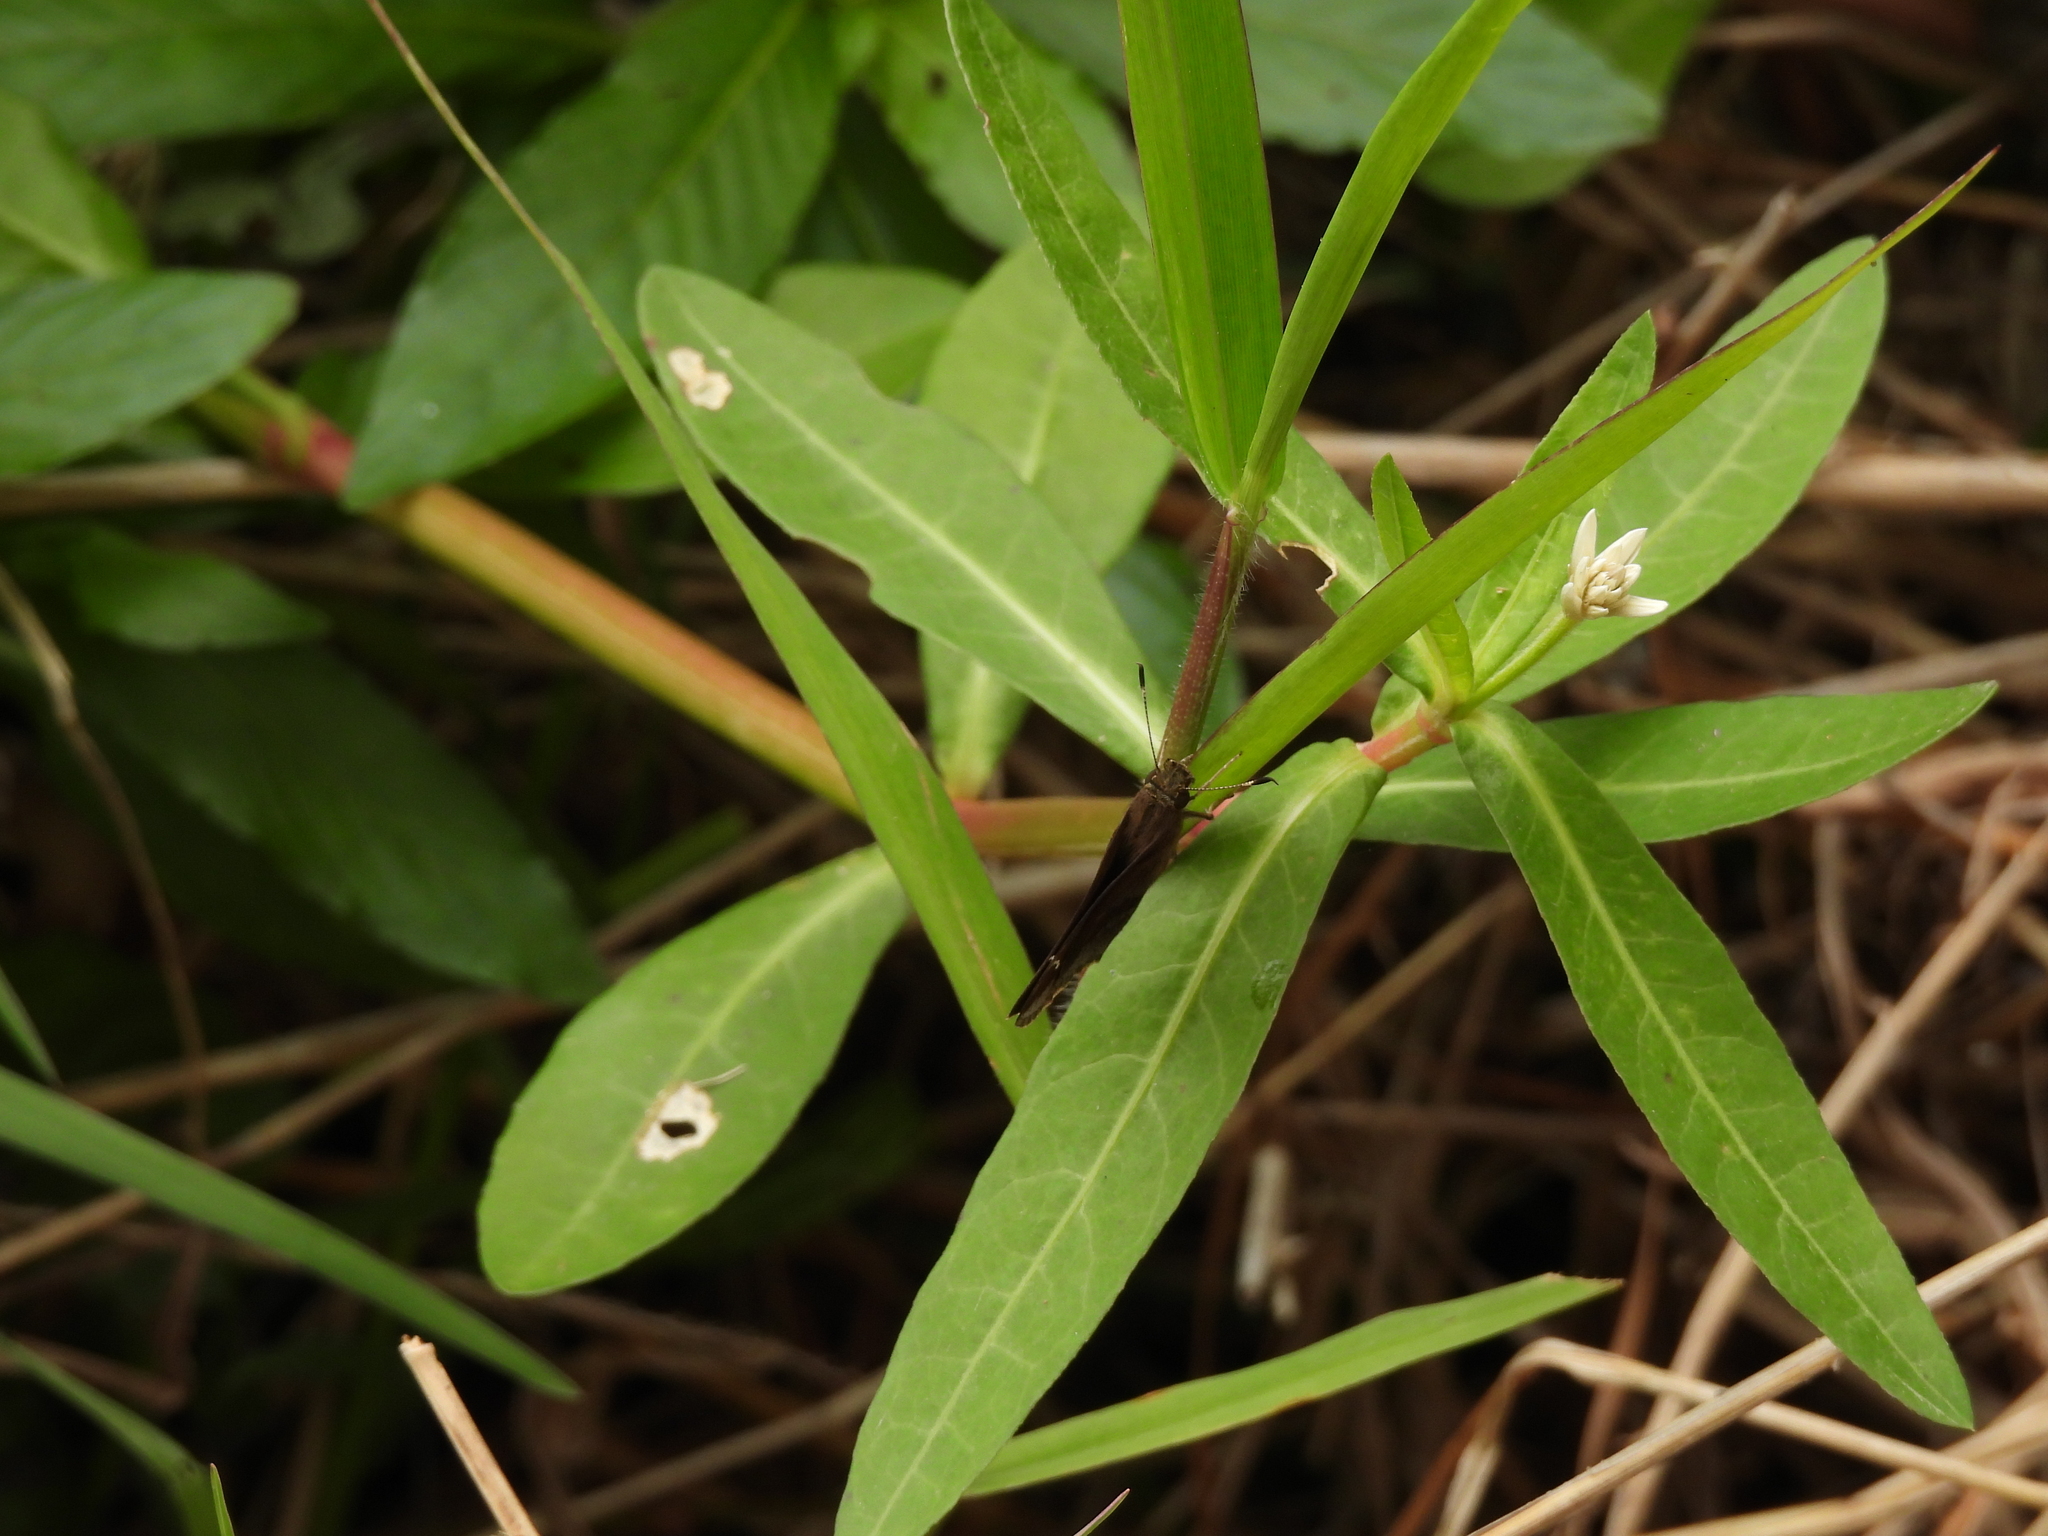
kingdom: Animalia
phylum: Arthropoda
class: Insecta
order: Lepidoptera
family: Hesperiidae
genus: Lerema
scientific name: Lerema accius
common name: Clouded skipper
